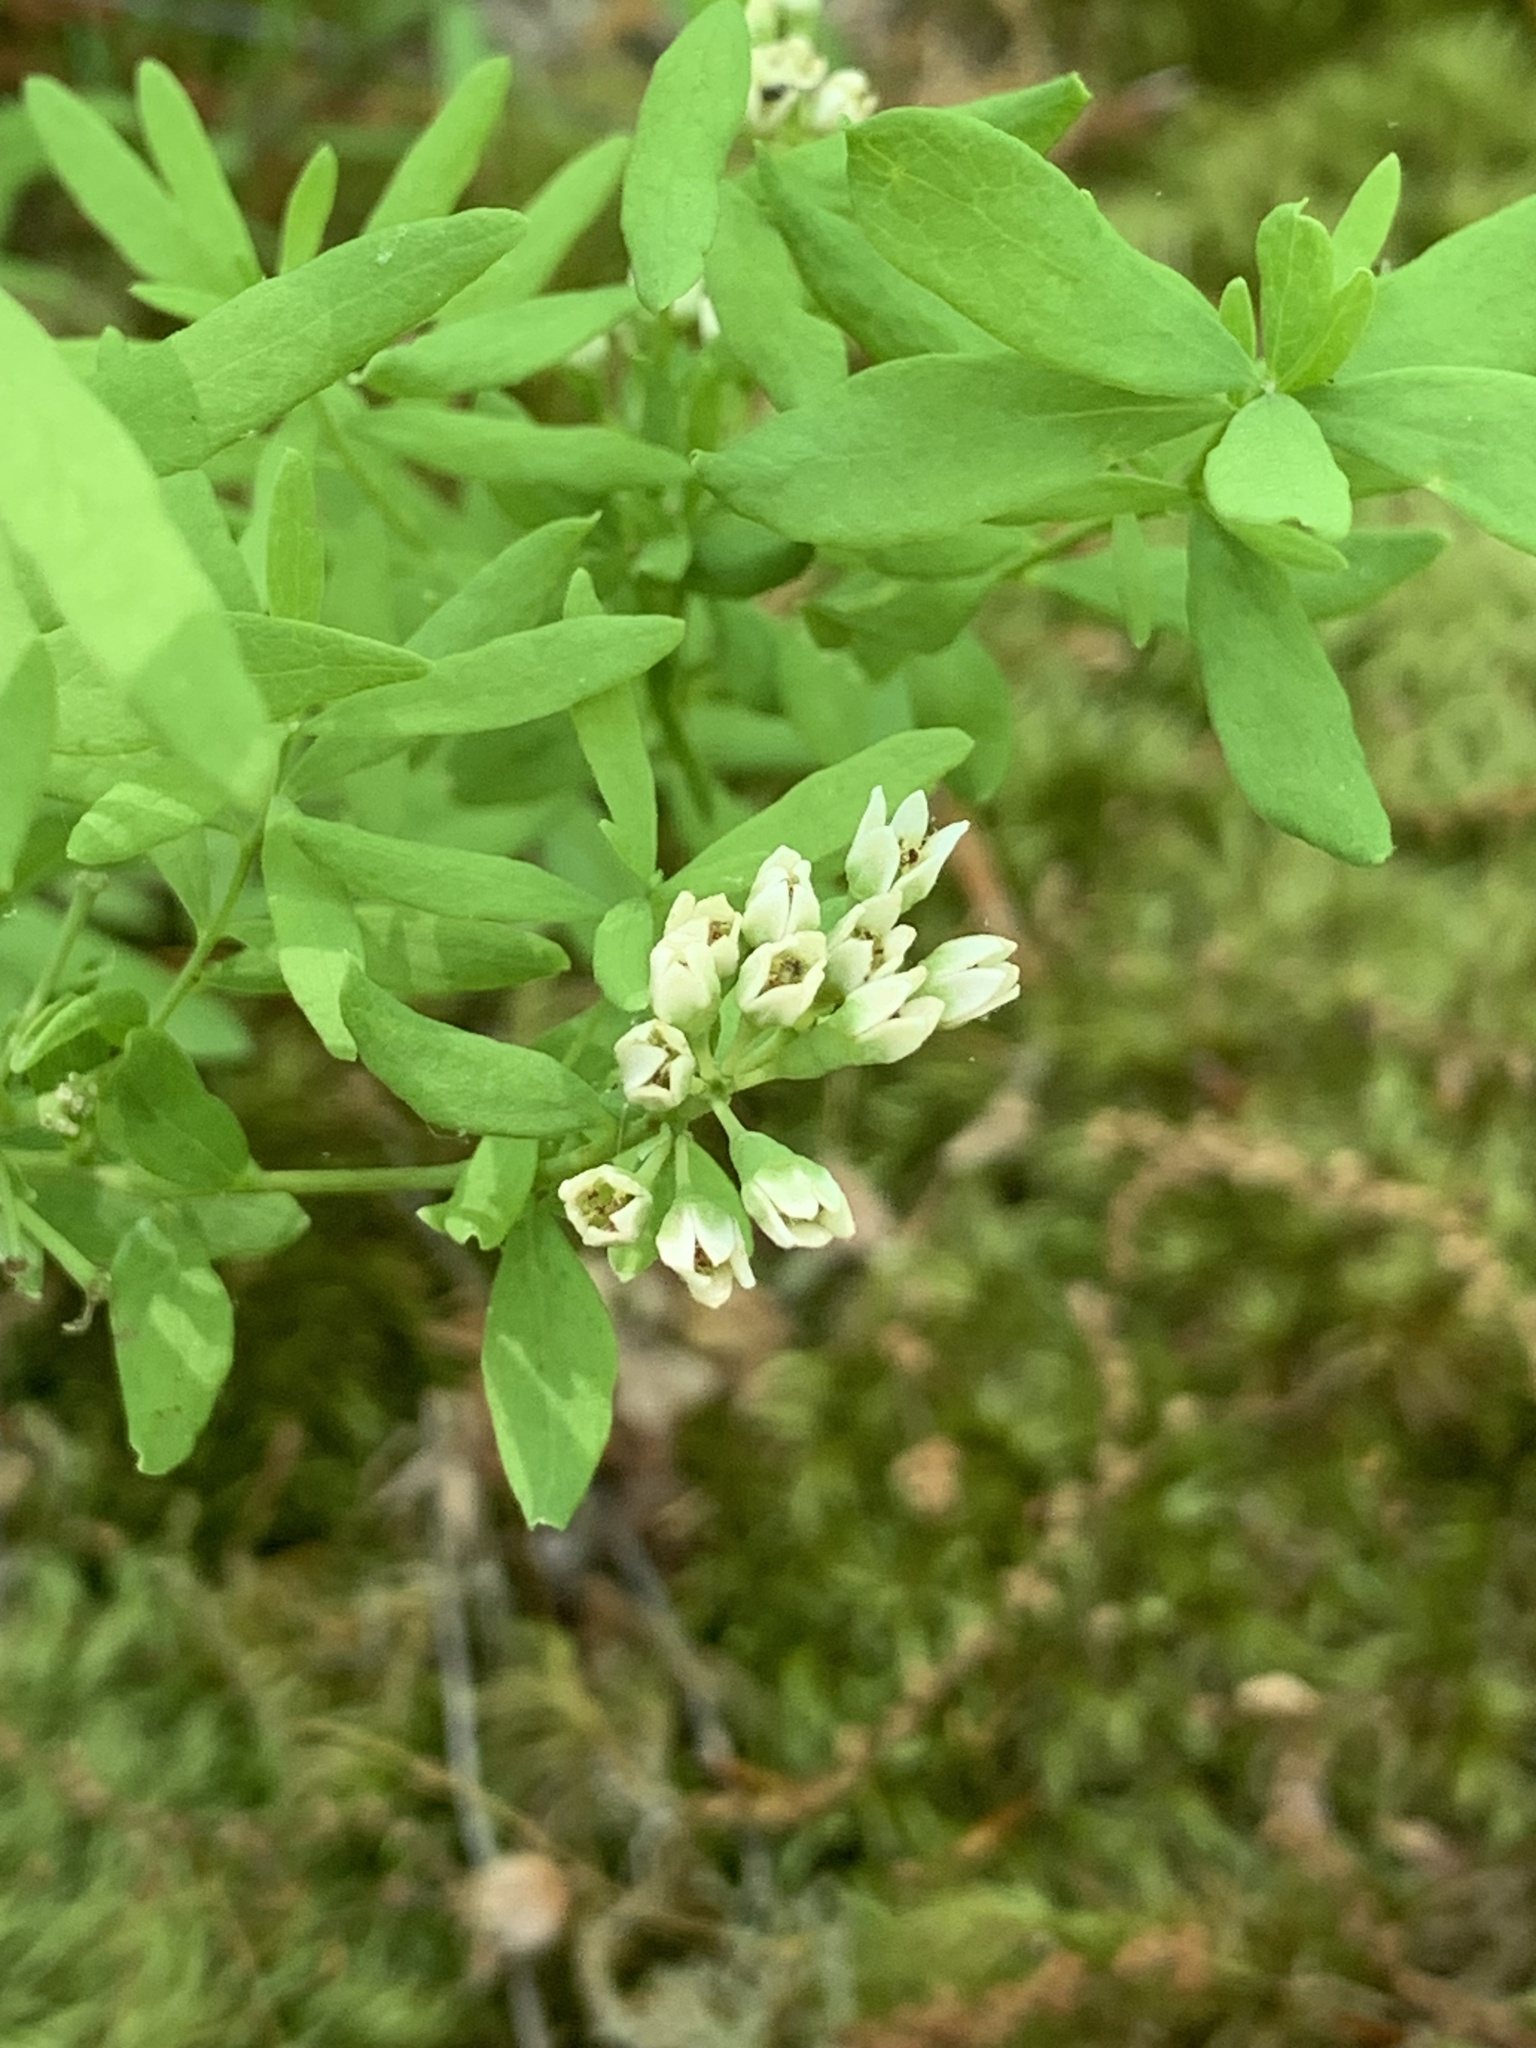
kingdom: Plantae
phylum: Tracheophyta
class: Magnoliopsida
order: Santalales
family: Comandraceae
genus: Comandra
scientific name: Comandra umbellata
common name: Bastard toadflax
